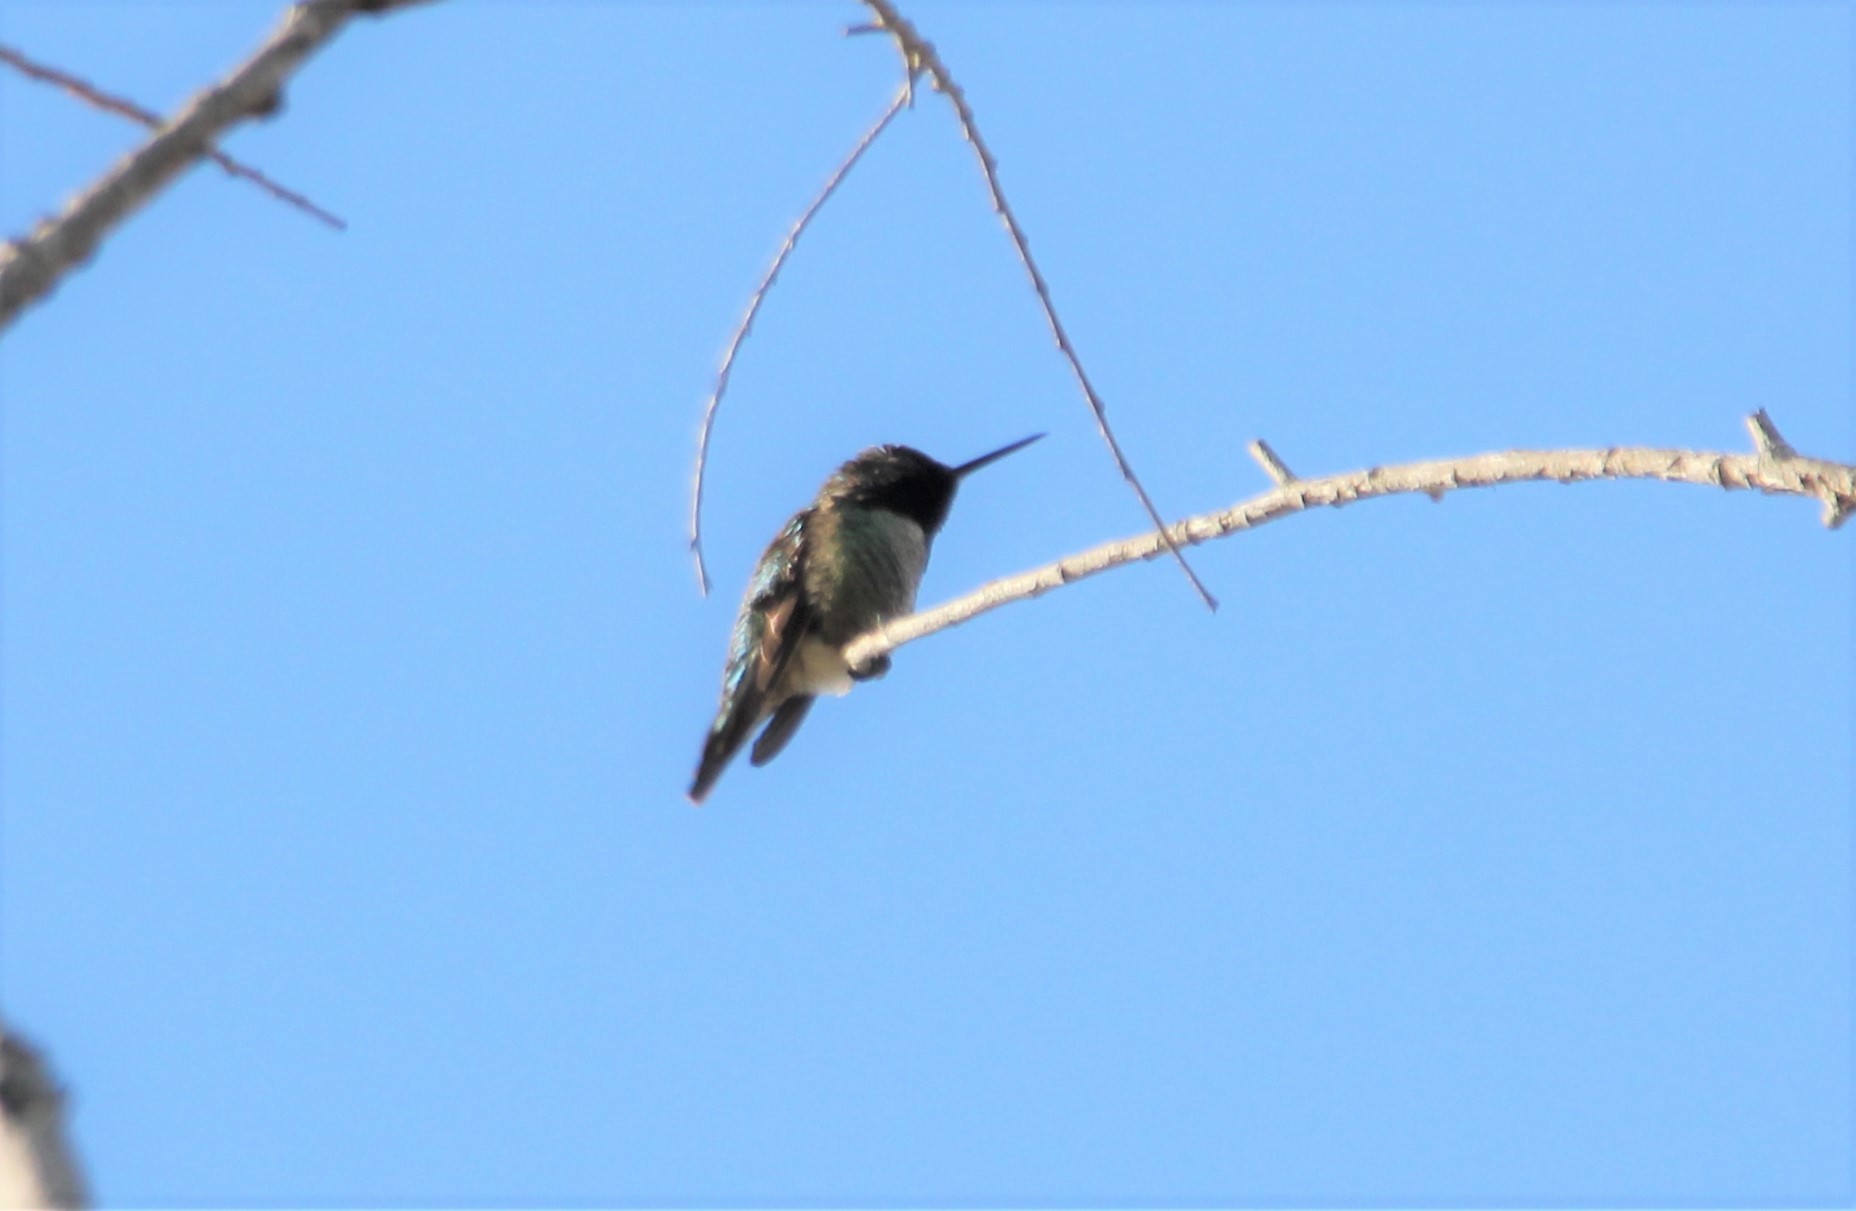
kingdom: Animalia
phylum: Chordata
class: Aves
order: Apodiformes
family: Trochilidae
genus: Calypte
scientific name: Calypte anna
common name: Anna's hummingbird
